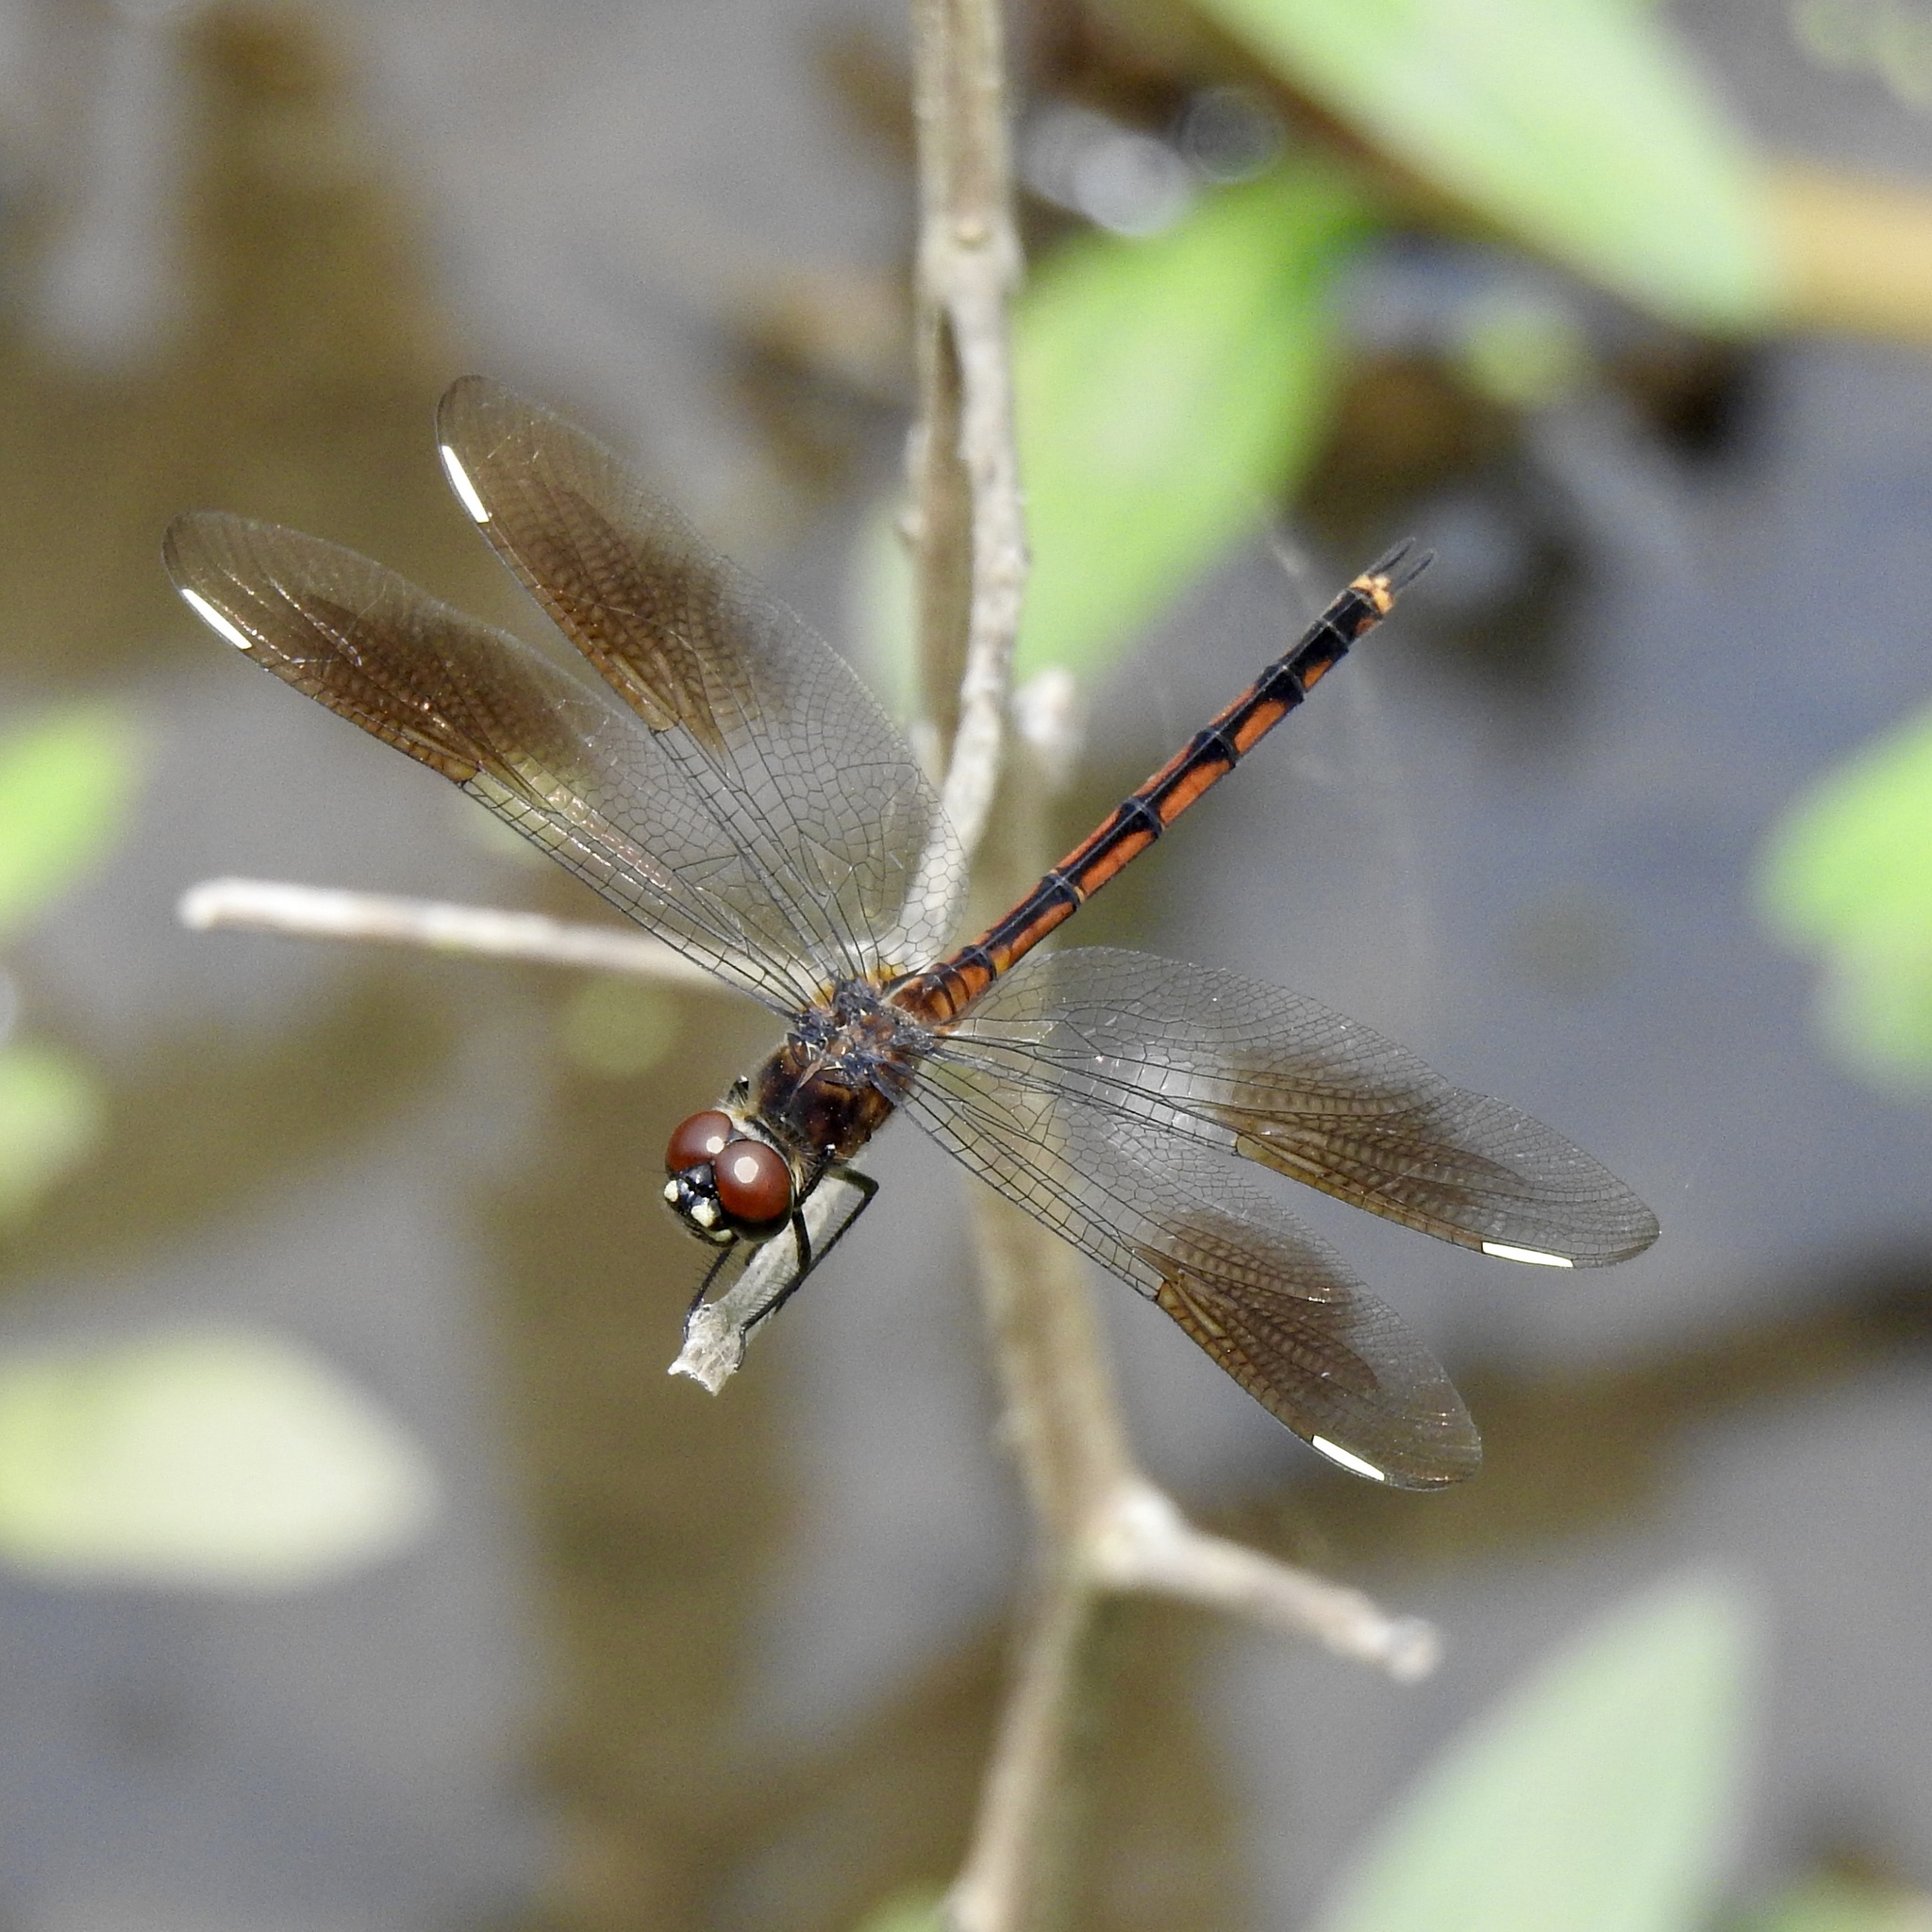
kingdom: Animalia
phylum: Arthropoda
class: Insecta
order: Odonata
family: Libellulidae
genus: Brachymesia
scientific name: Brachymesia gravida
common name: Four-spotted pennant
